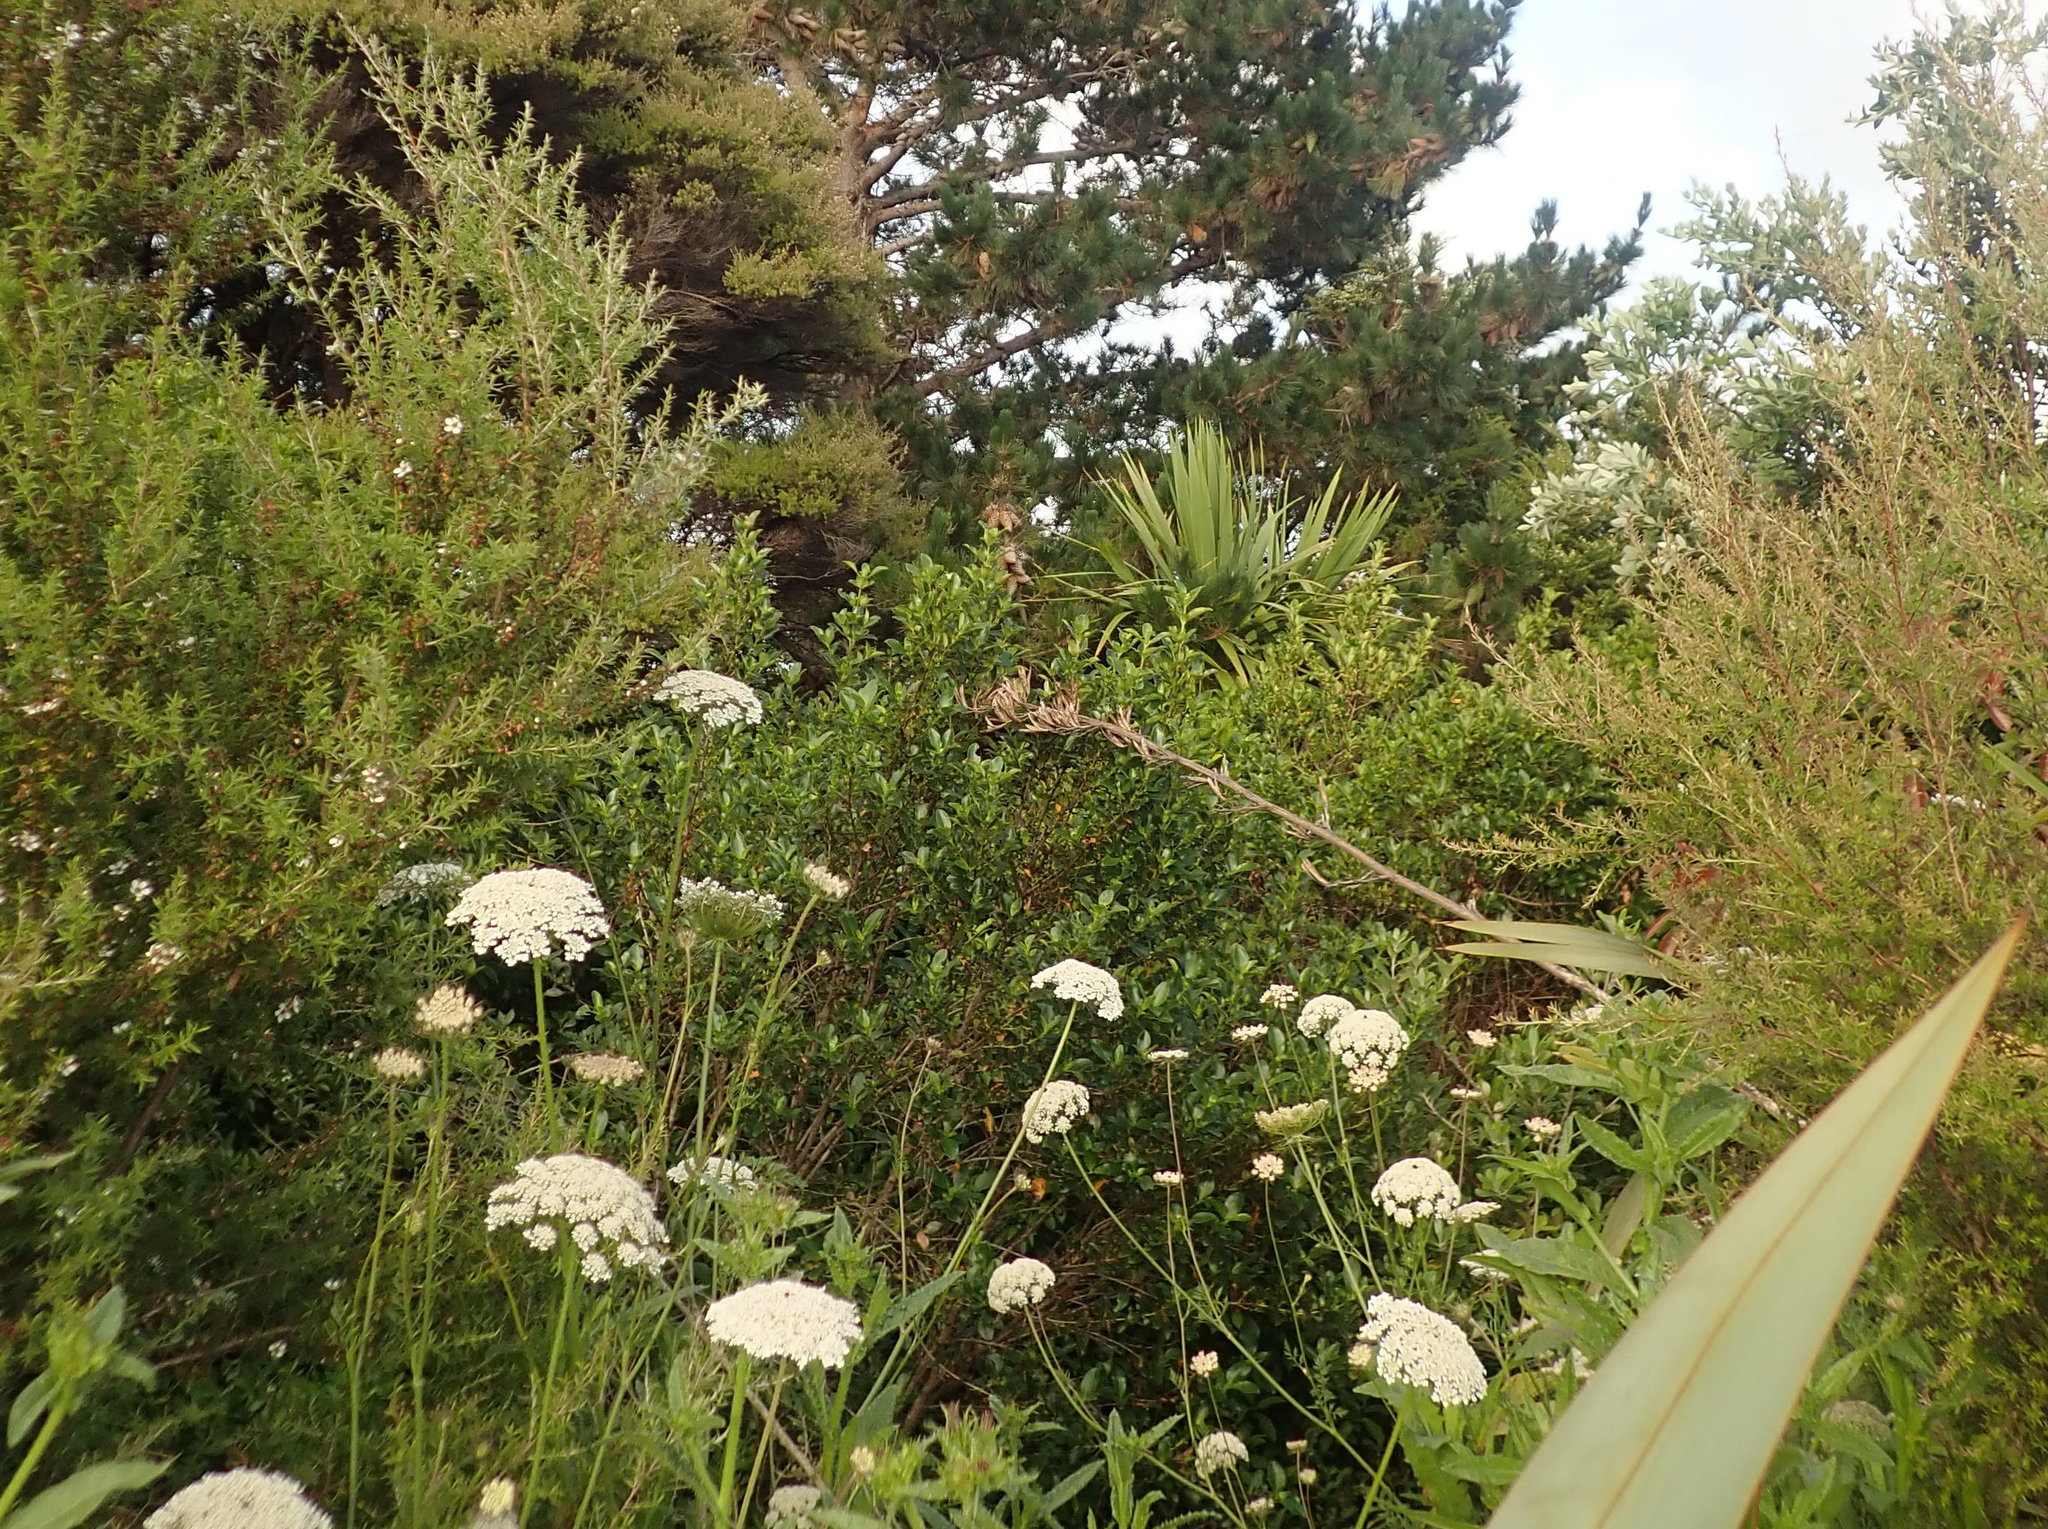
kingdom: Plantae
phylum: Tracheophyta
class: Pinopsida
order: Pinales
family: Pinaceae
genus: Pinus
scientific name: Pinus radiata
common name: Monterey pine
